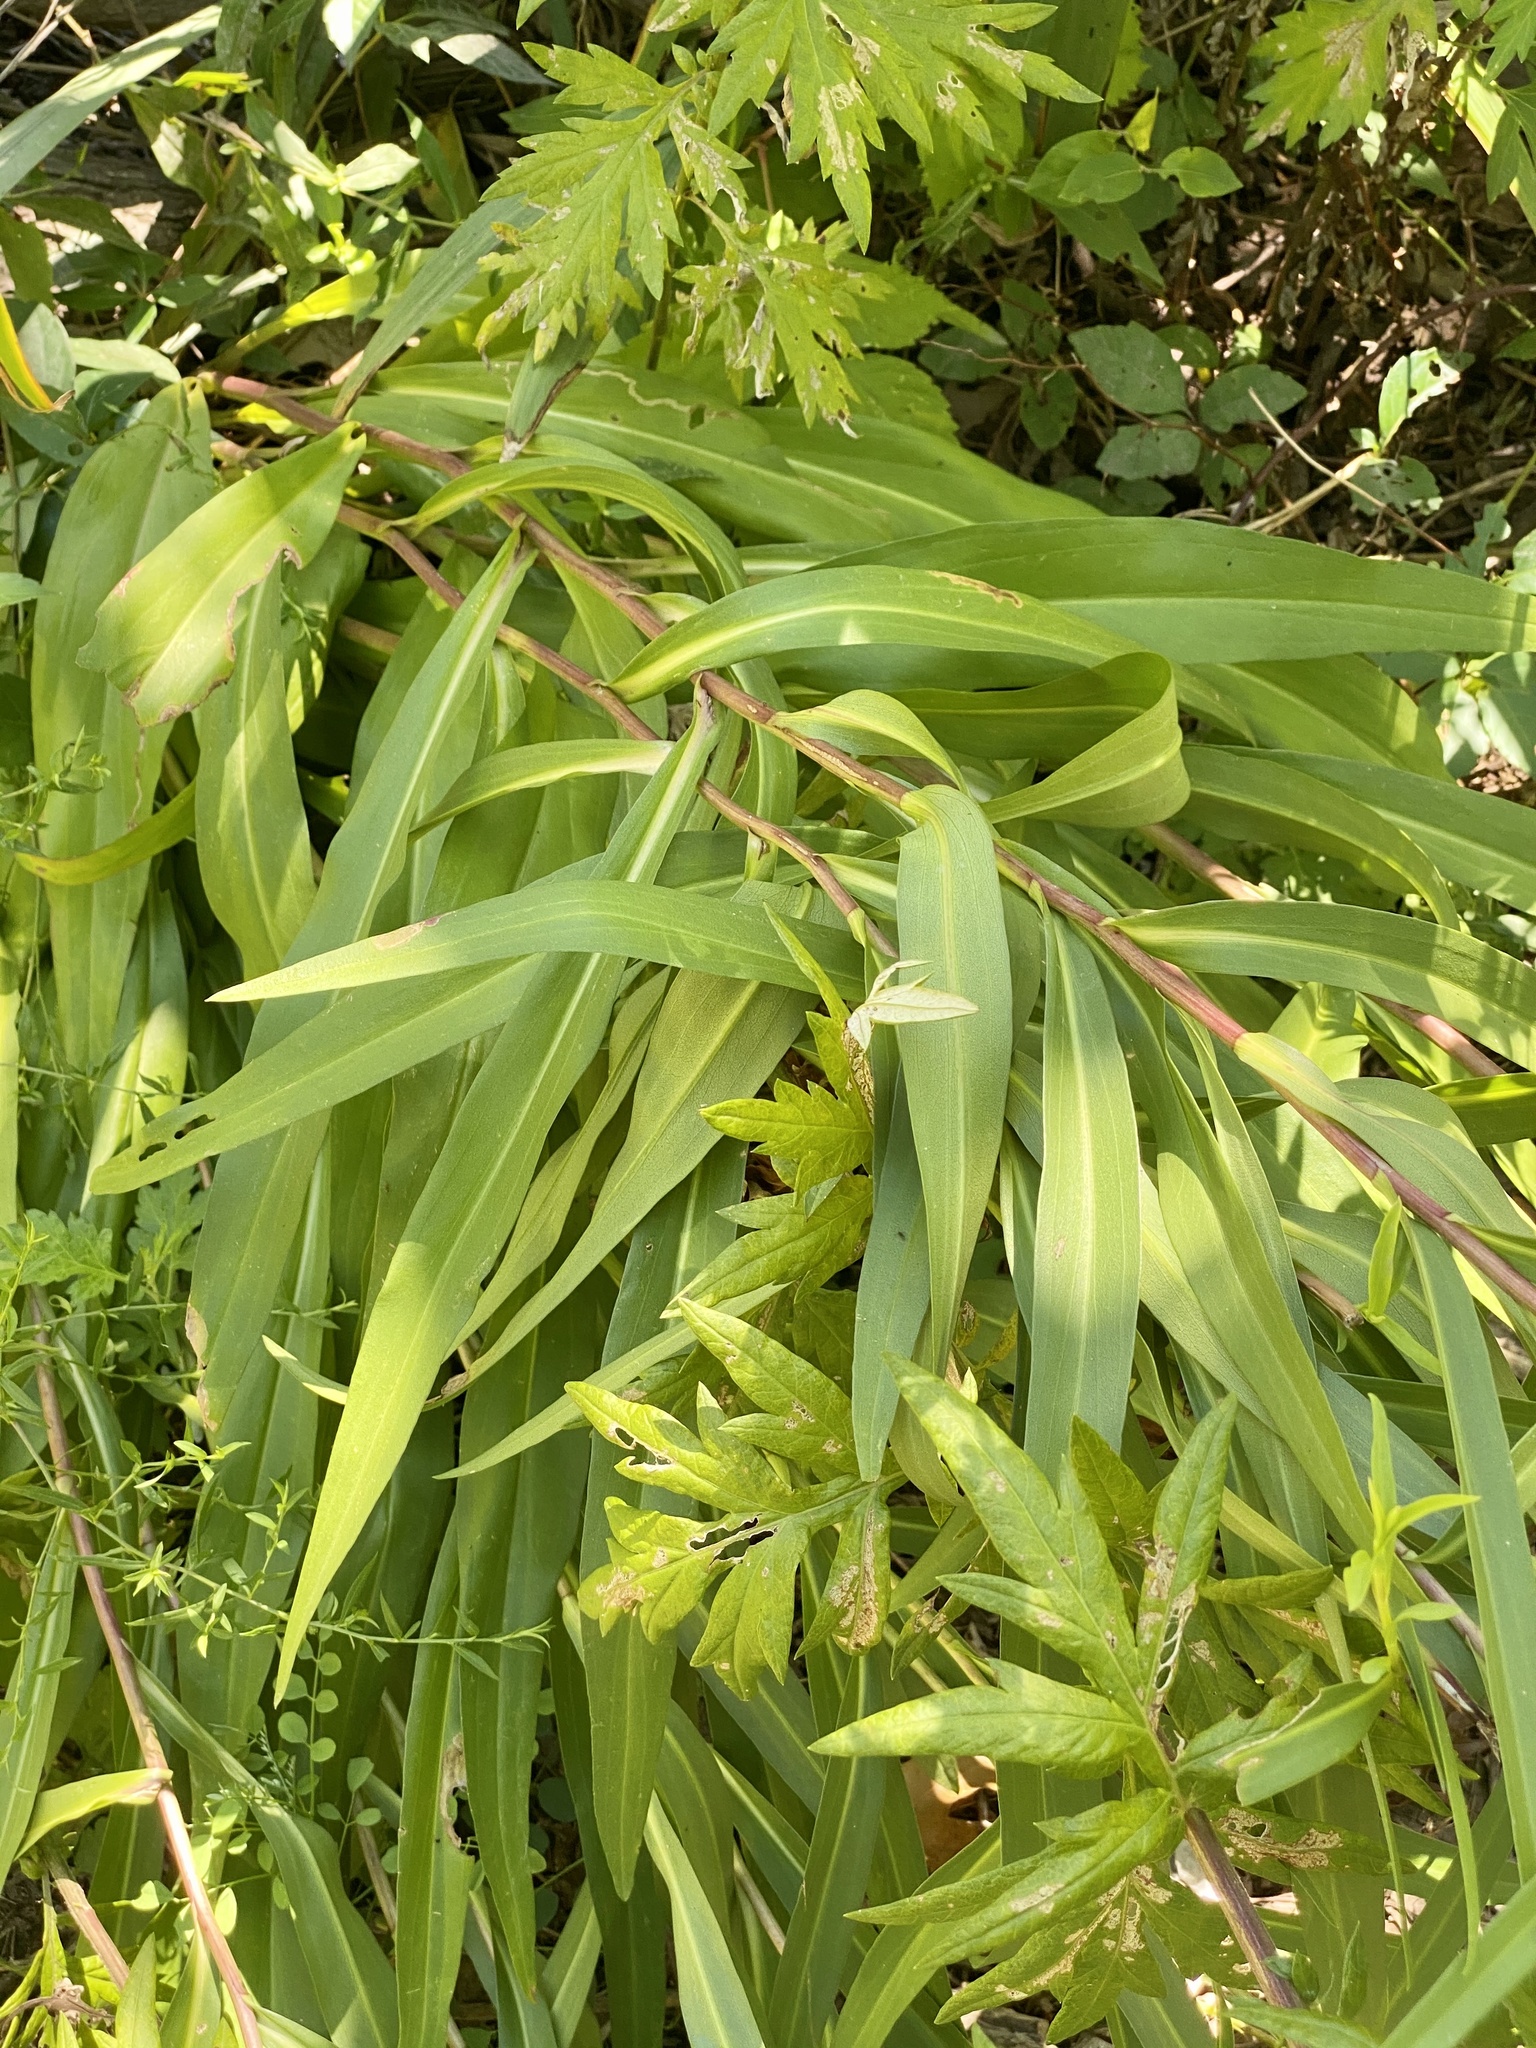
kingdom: Plantae
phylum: Tracheophyta
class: Magnoliopsida
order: Asterales
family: Asteraceae
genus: Solidago
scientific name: Solidago sempervirens
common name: Salt-marsh goldenrod
